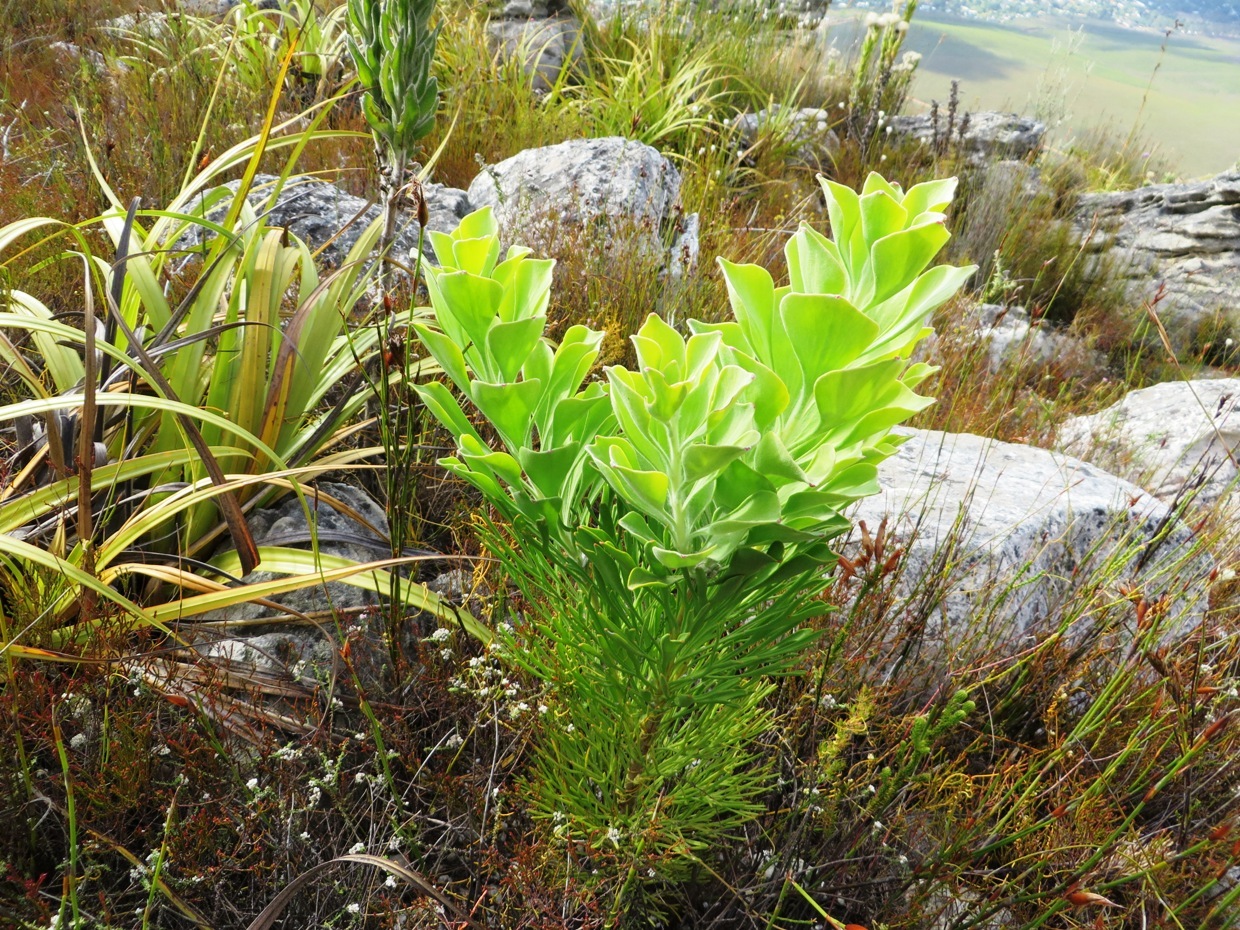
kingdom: Plantae
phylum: Tracheophyta
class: Magnoliopsida
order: Proteales
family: Proteaceae
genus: Paranomus
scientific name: Paranomus sceptrum-gustavianus
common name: King gustav's sceptre
